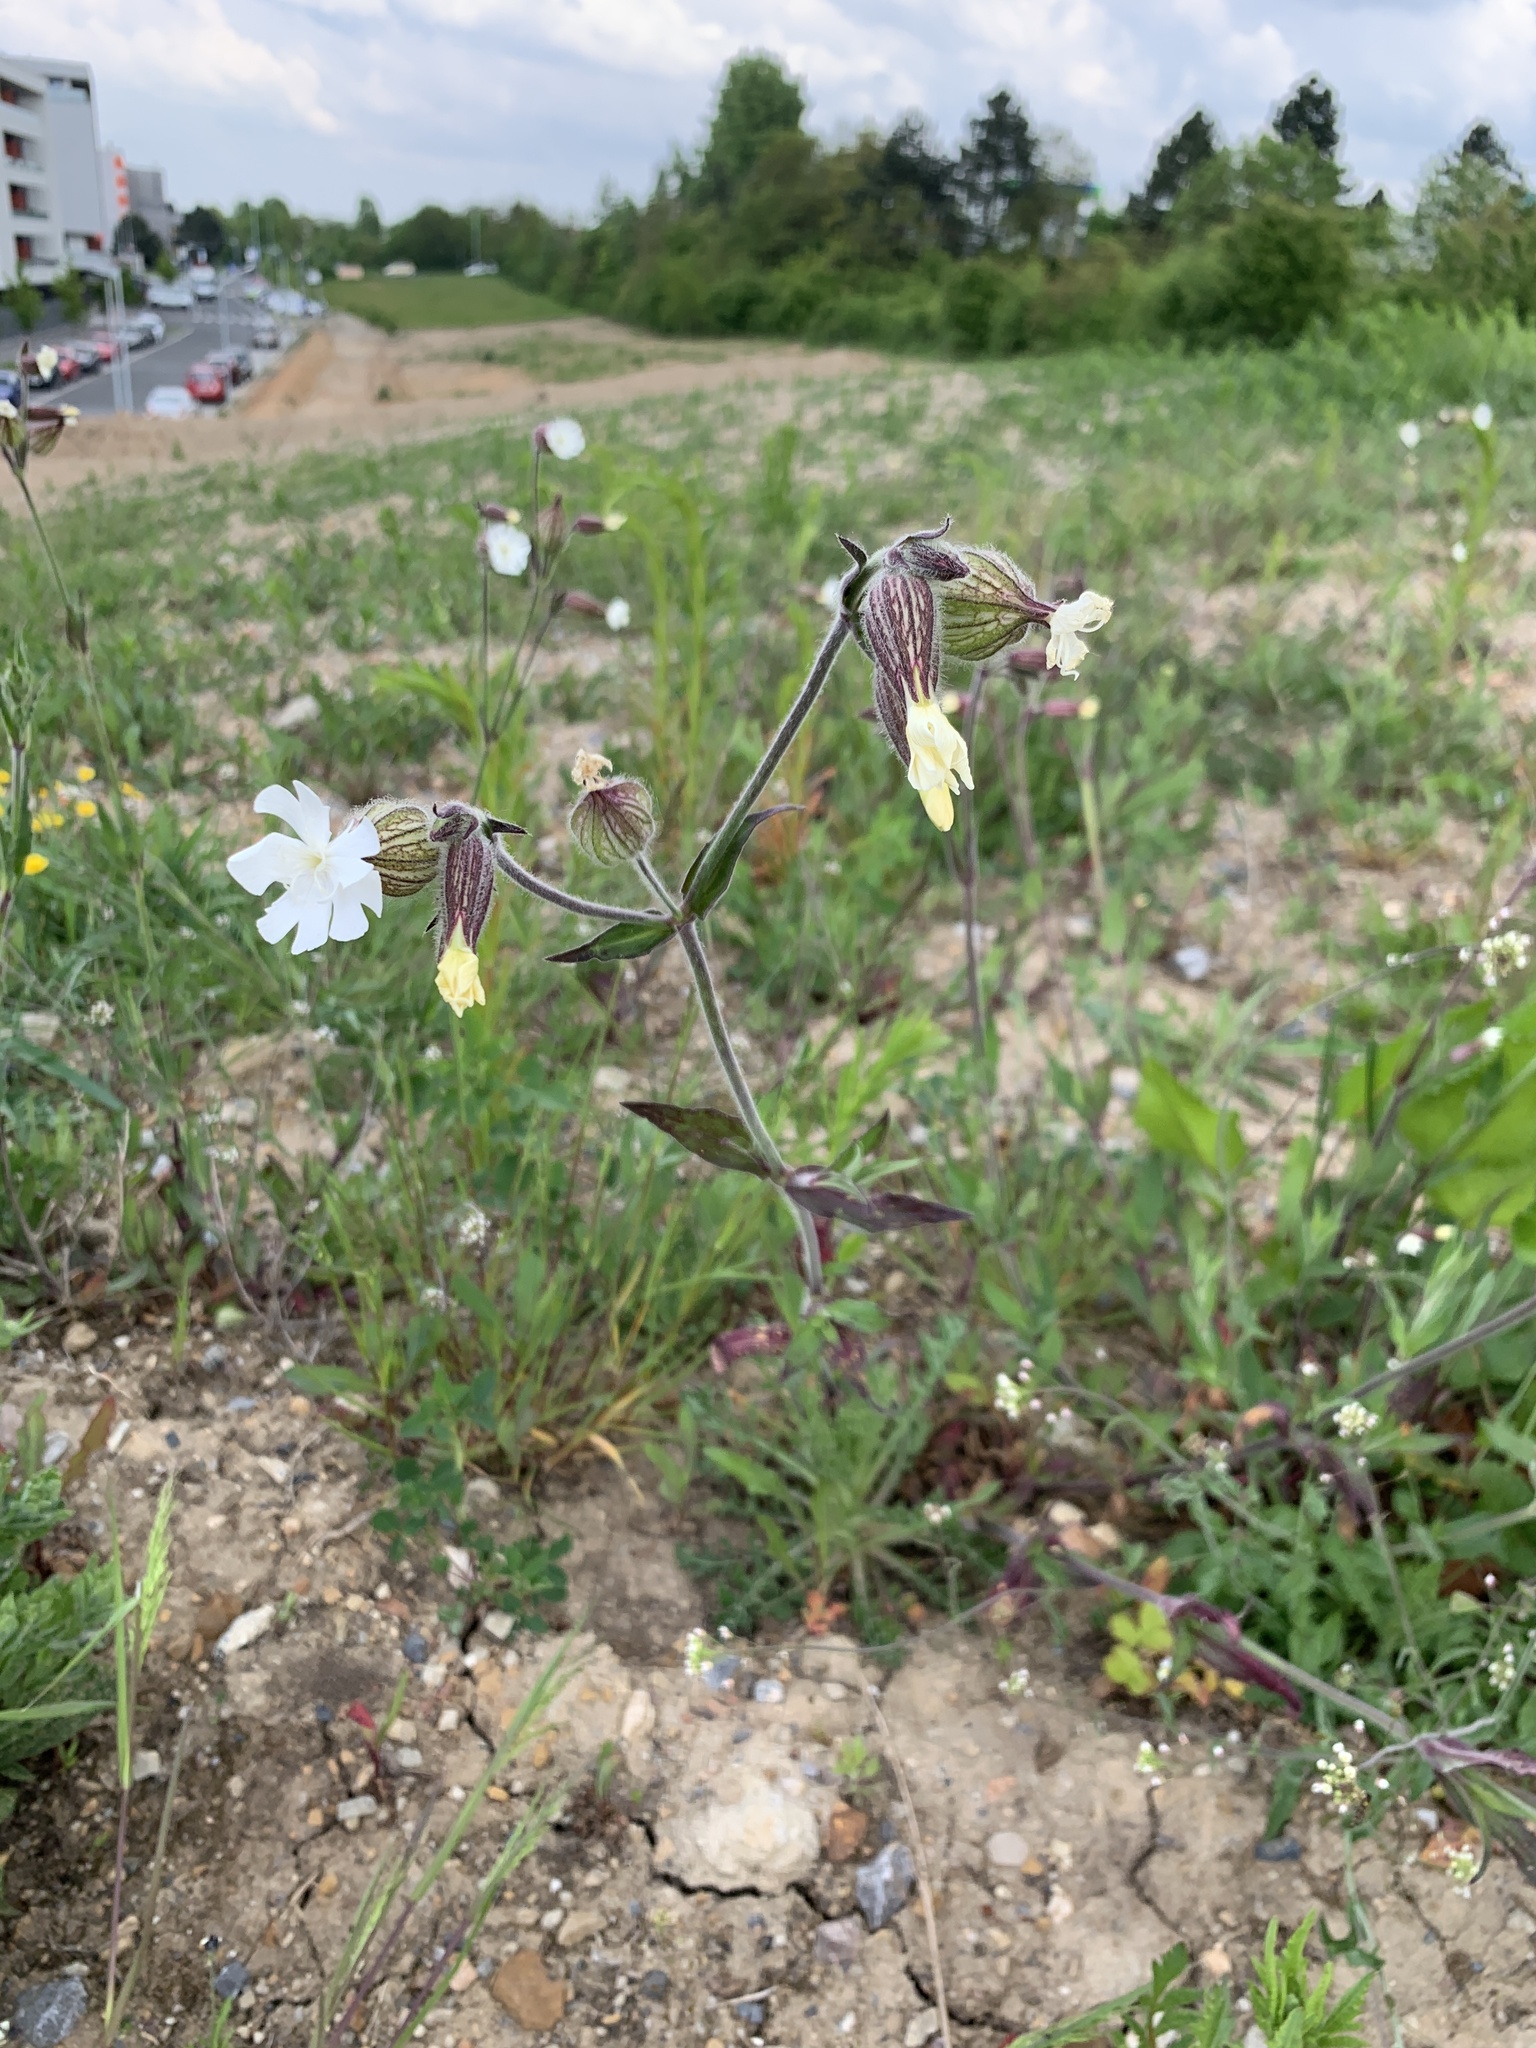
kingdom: Plantae
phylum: Tracheophyta
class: Magnoliopsida
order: Caryophyllales
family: Caryophyllaceae
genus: Silene
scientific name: Silene latifolia
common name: White campion
